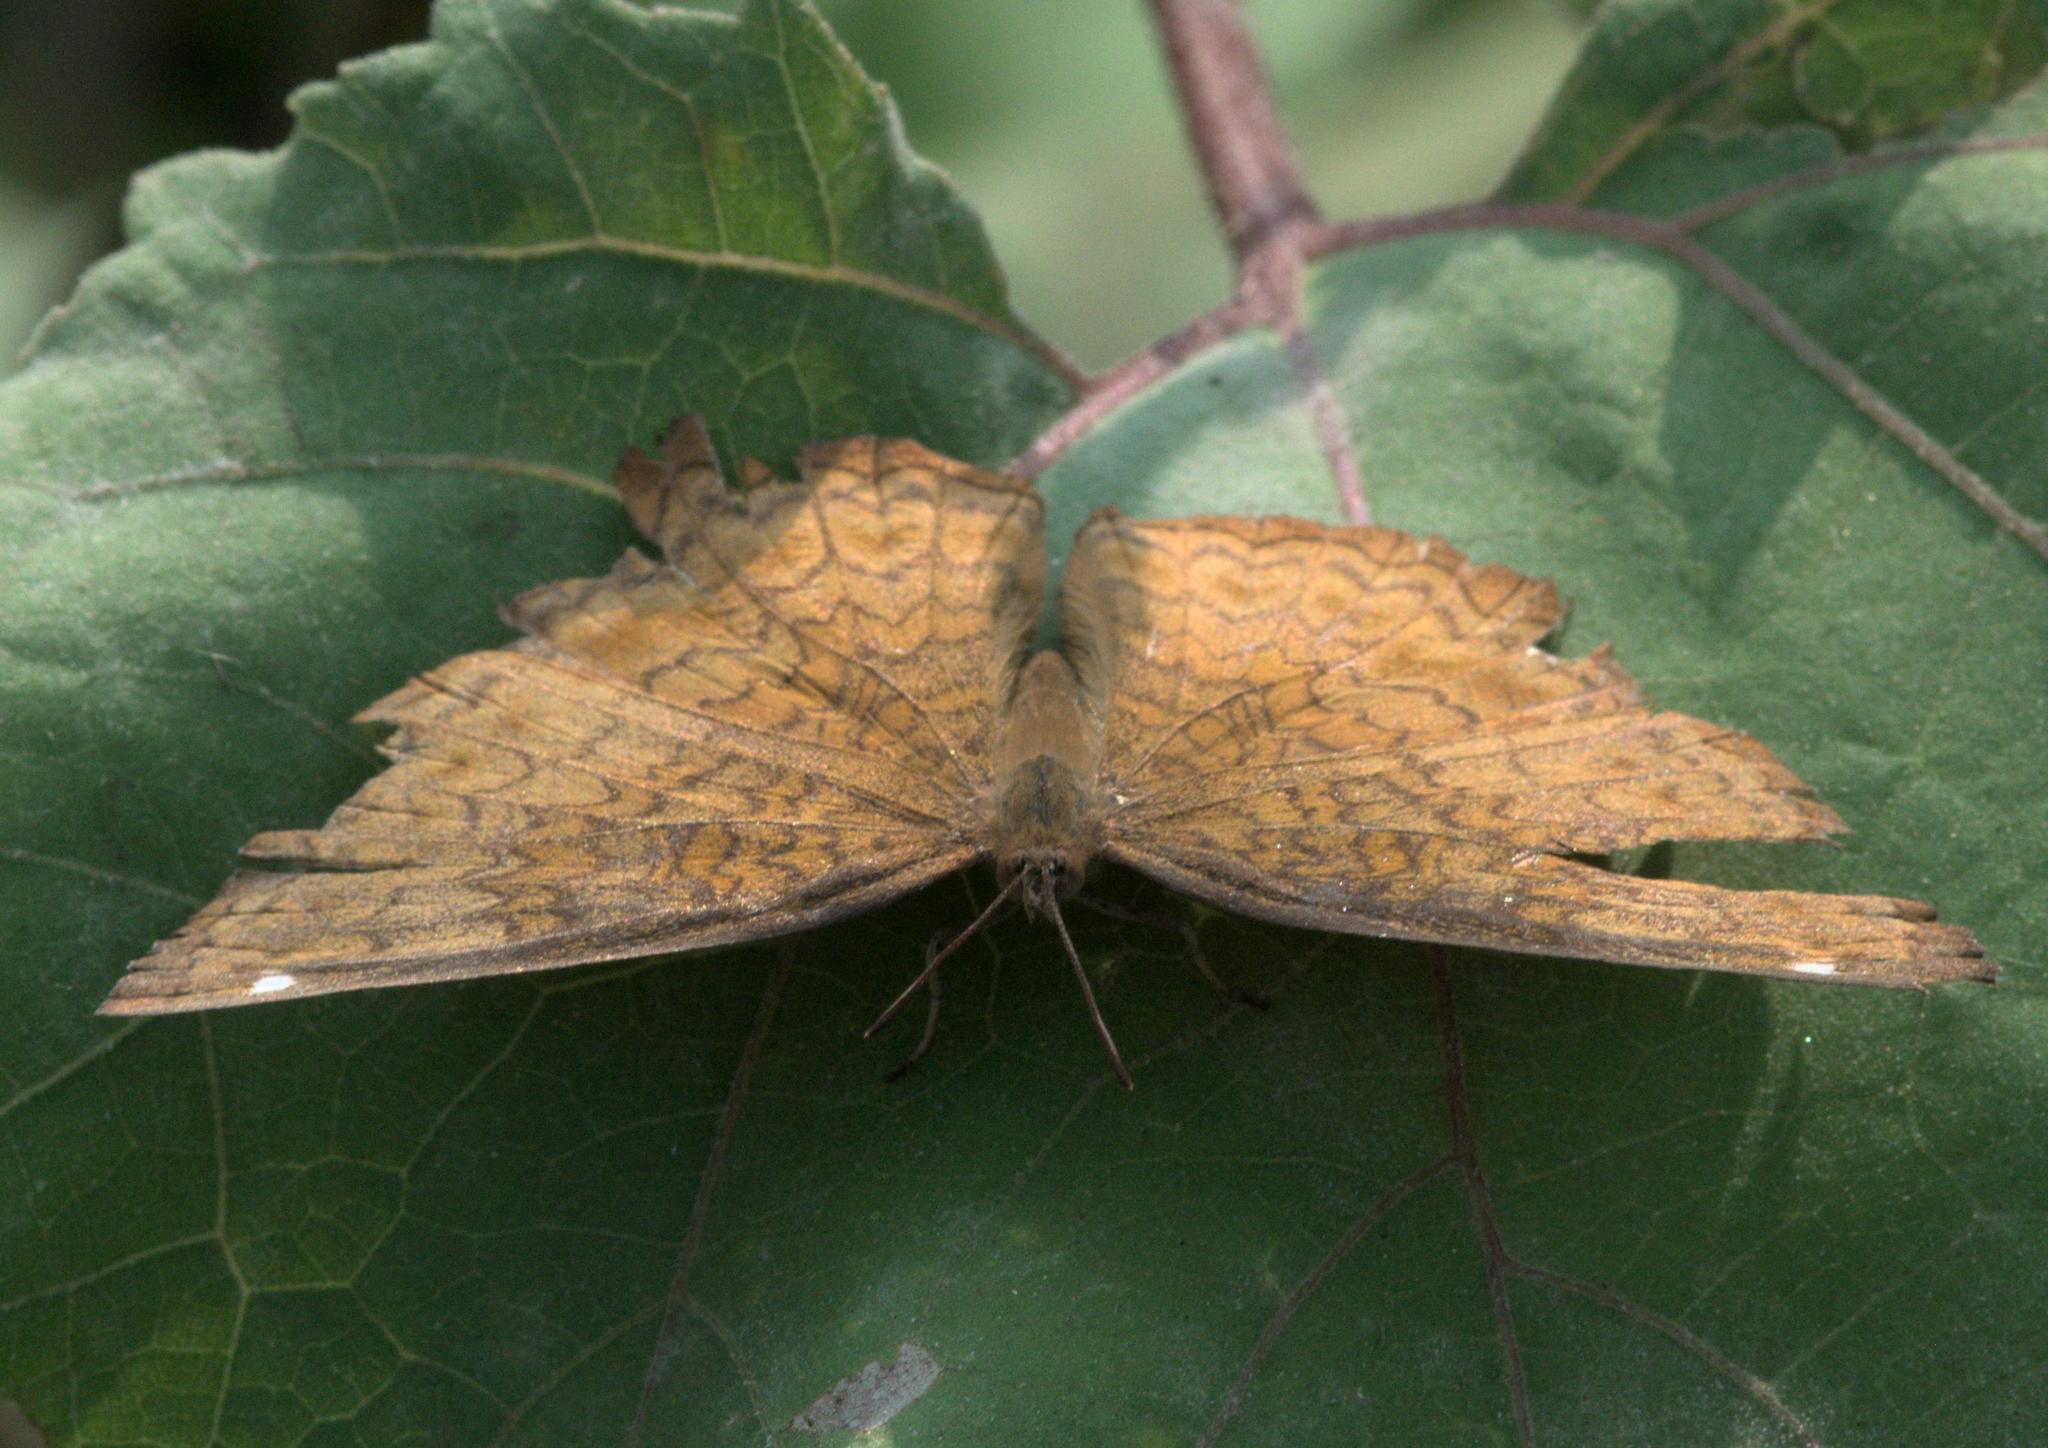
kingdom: Animalia
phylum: Arthropoda
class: Insecta
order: Lepidoptera
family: Nymphalidae
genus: Ariadne
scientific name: Ariadne merione
